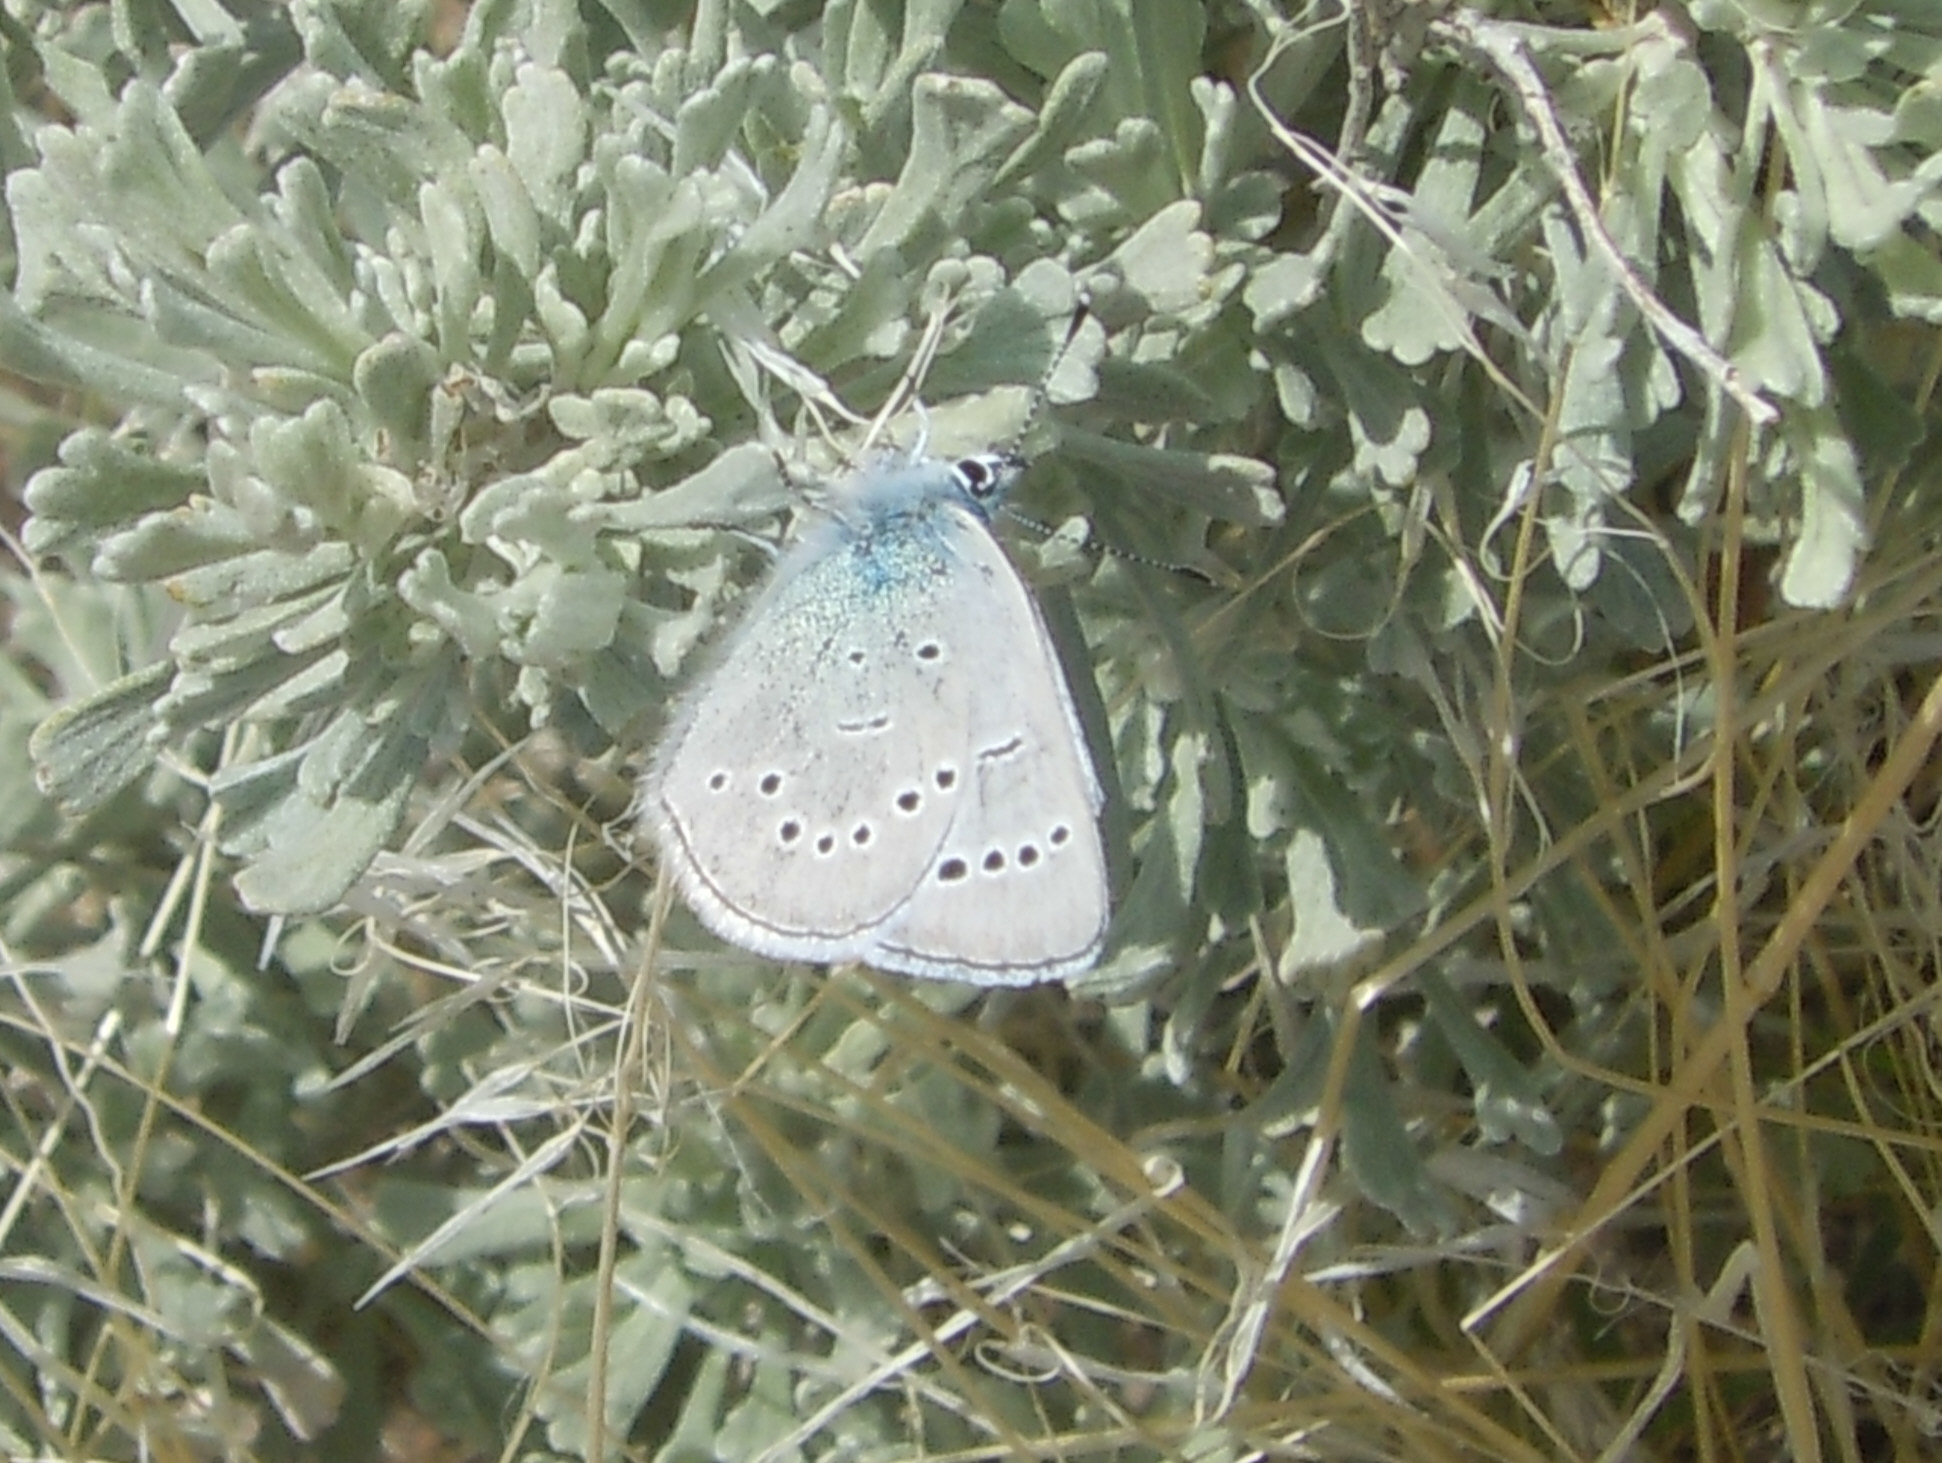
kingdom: Animalia
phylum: Arthropoda
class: Insecta
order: Lepidoptera
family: Lycaenidae
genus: Glaucopsyche
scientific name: Glaucopsyche lygdamus
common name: Silvery blue
